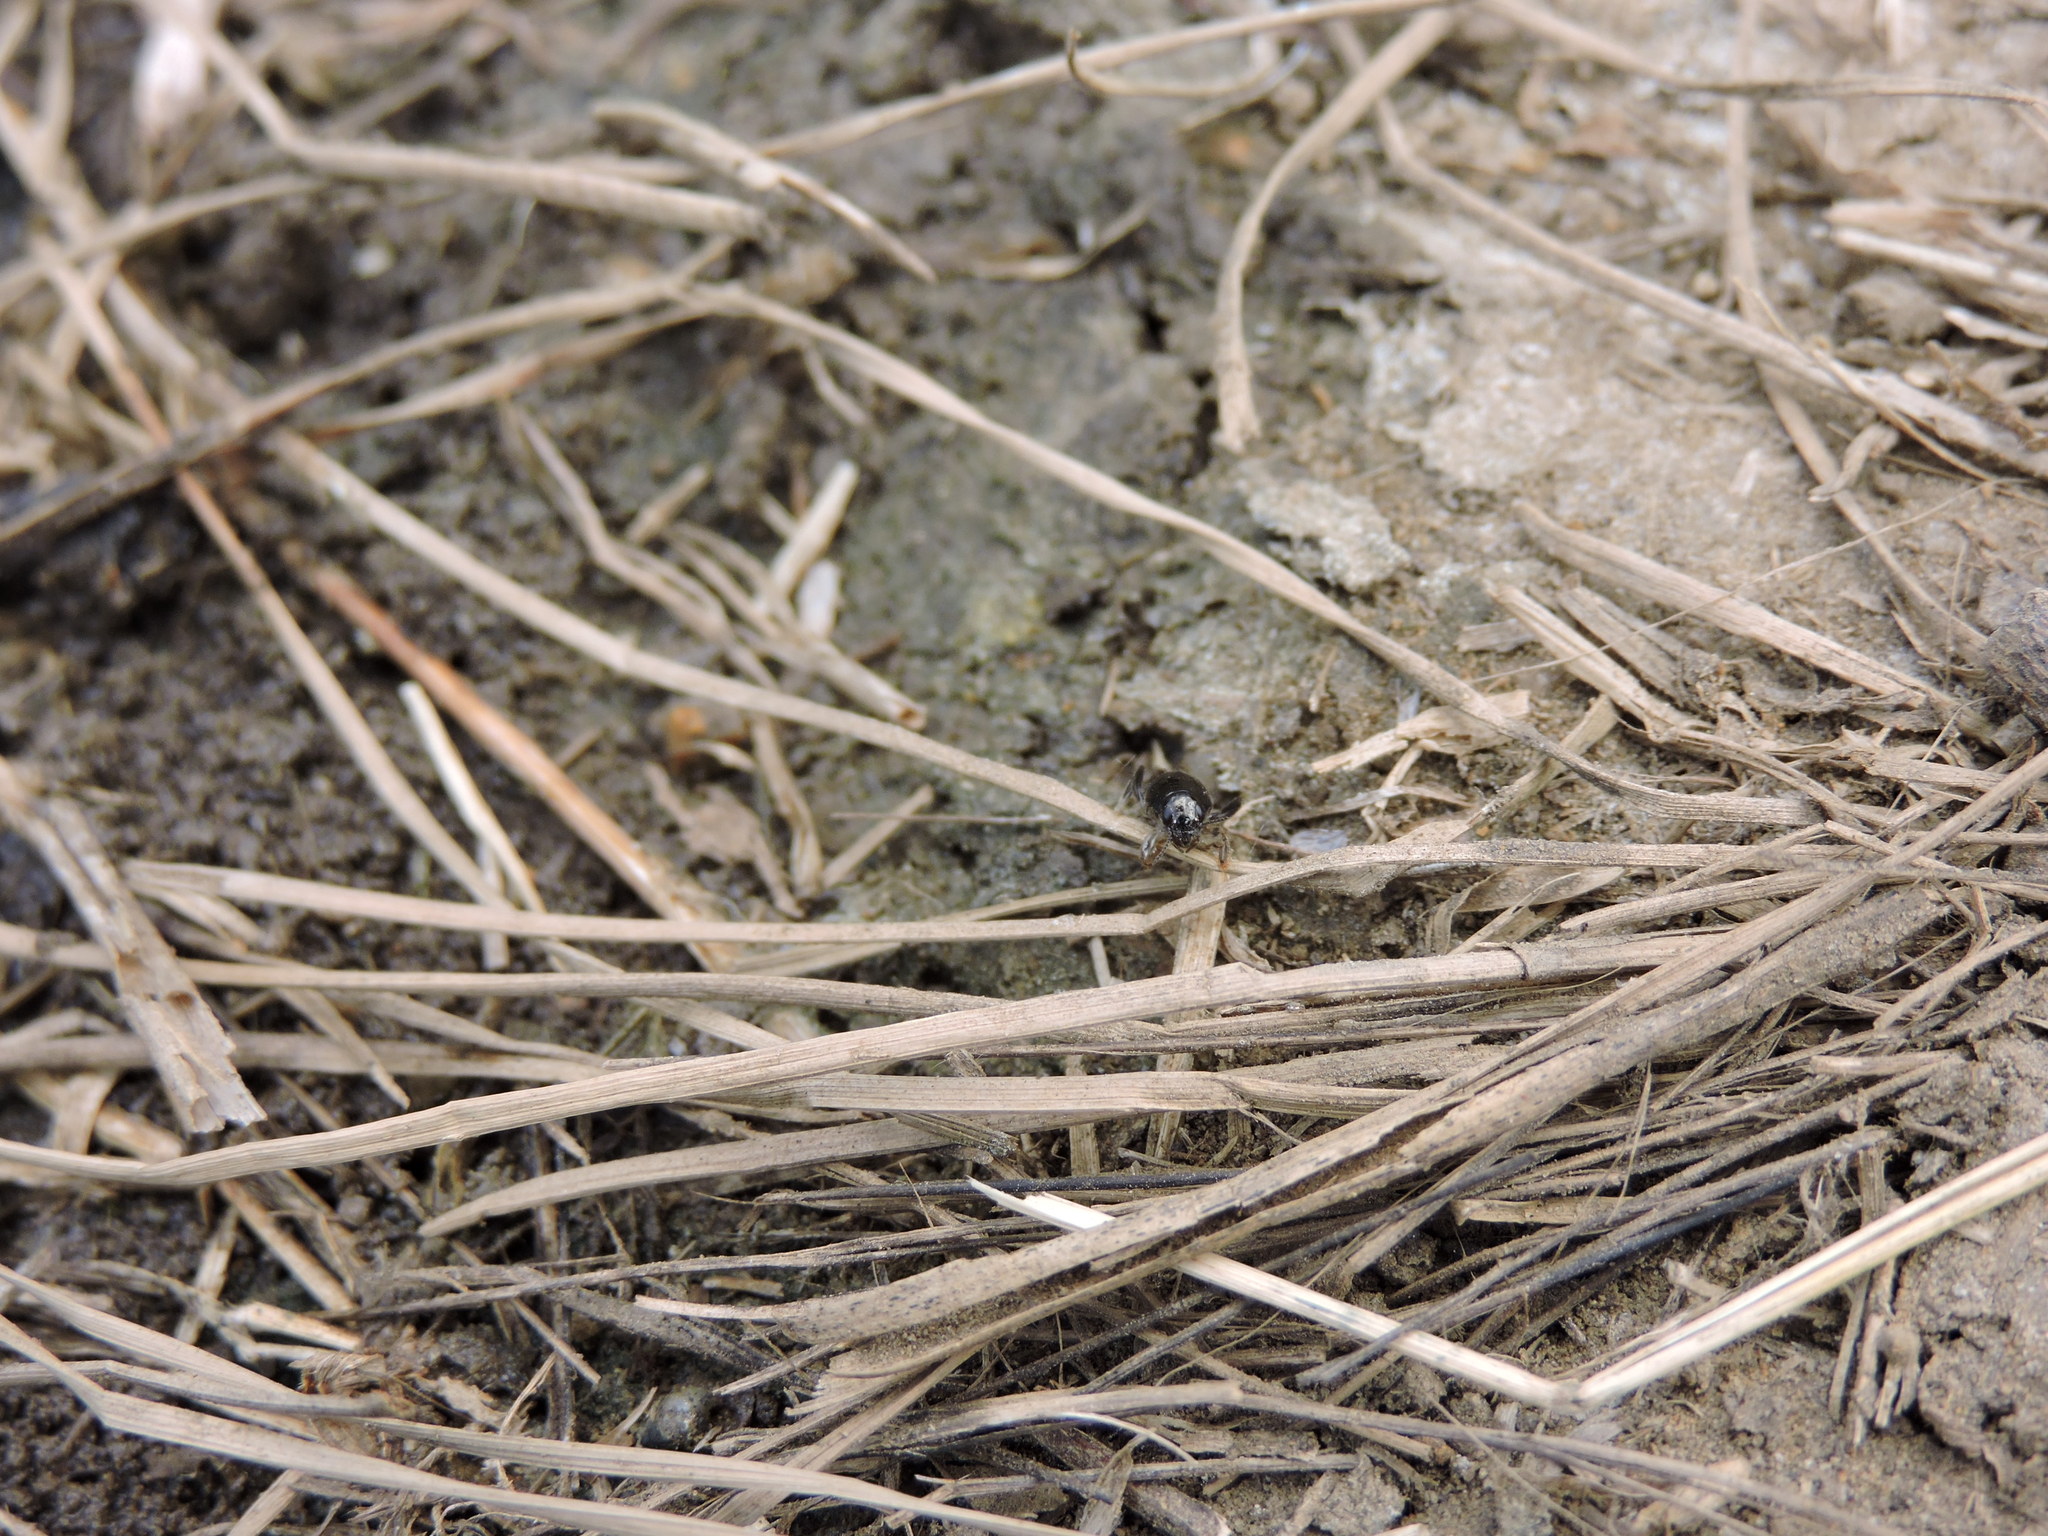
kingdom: Animalia
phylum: Arthropoda
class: Insecta
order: Orthoptera
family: Tridactylidae
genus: Neotridactylus
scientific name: Neotridactylus apicialis
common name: Larger pygmy locust
